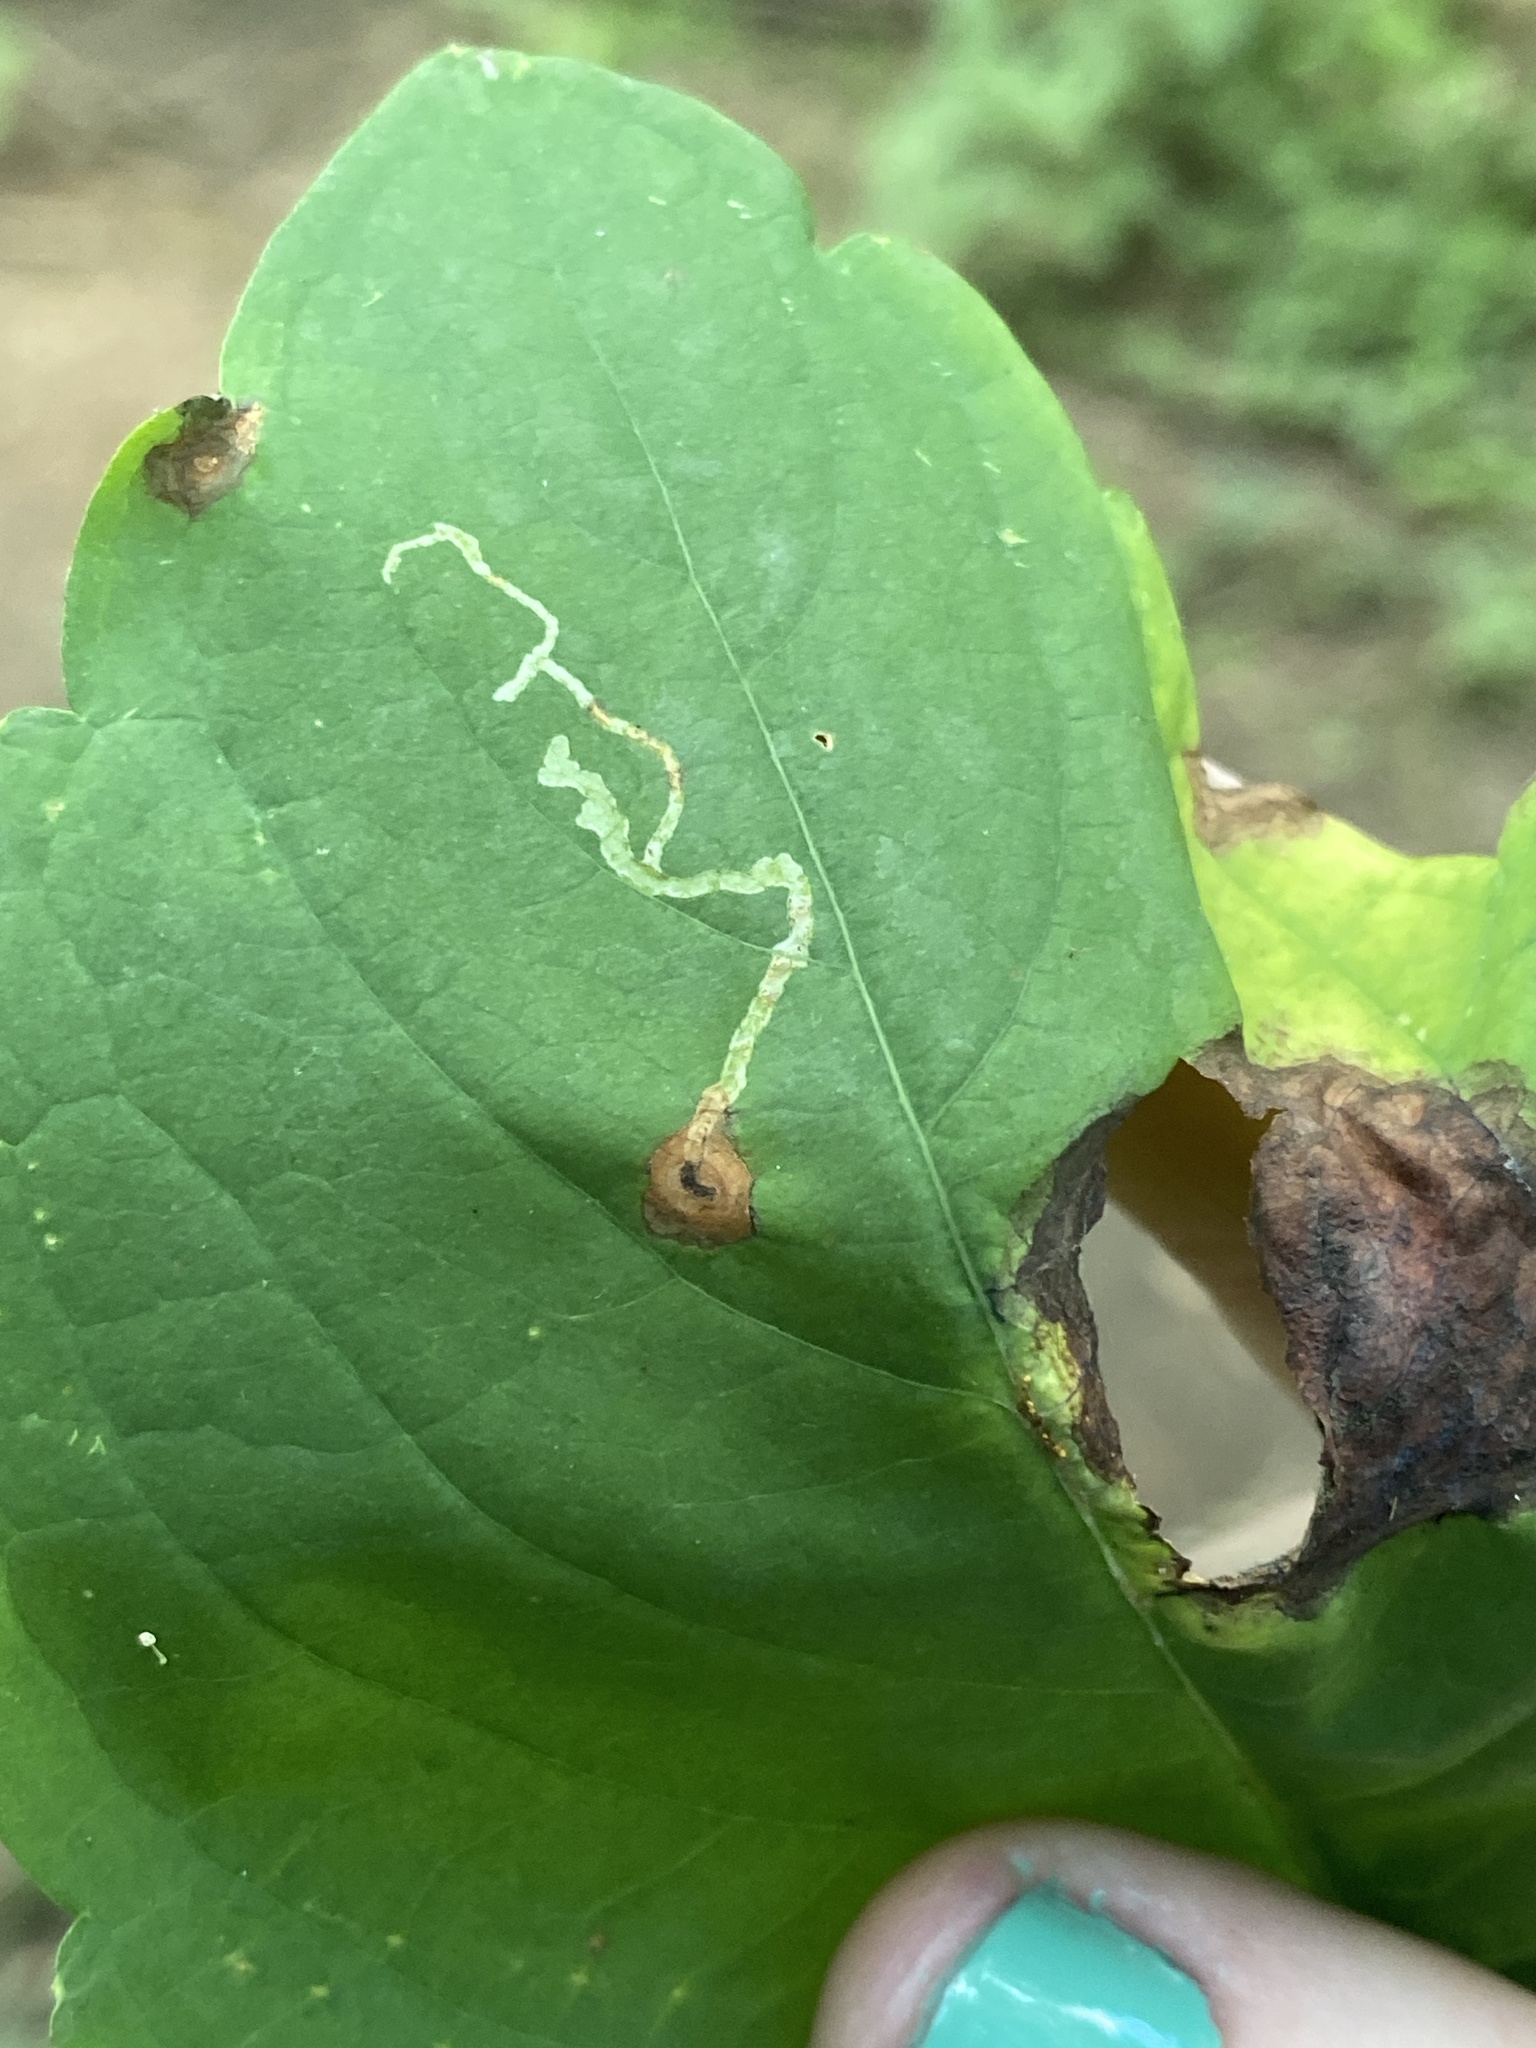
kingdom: Animalia
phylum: Arthropoda
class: Insecta
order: Diptera
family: Agromyzidae
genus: Phytoliriomyza
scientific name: Phytoliriomyza melampyga
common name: Jewelweed leaf-miner fly
